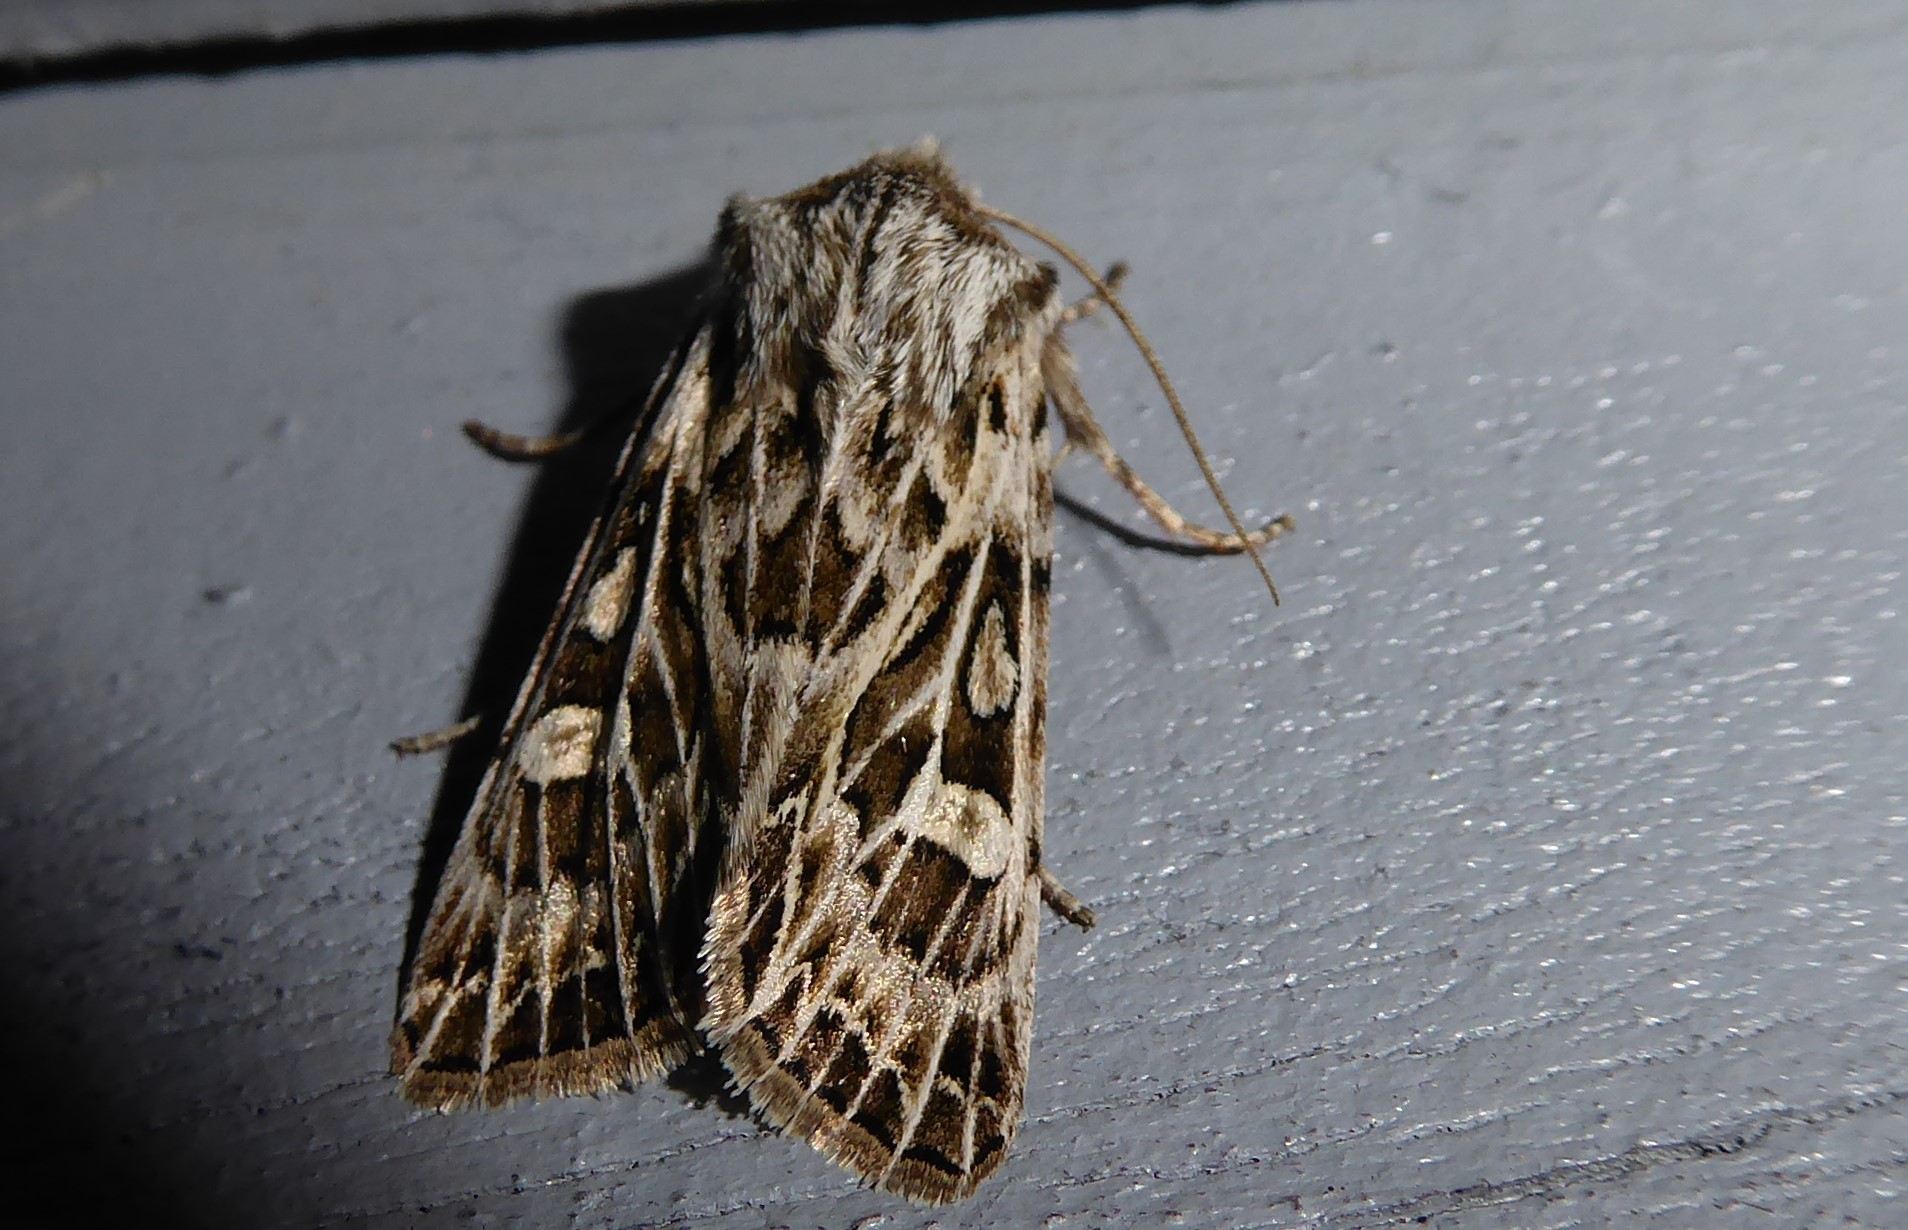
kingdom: Animalia
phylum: Arthropoda
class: Insecta
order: Lepidoptera
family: Noctuidae
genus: Ichneutica
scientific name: Ichneutica
